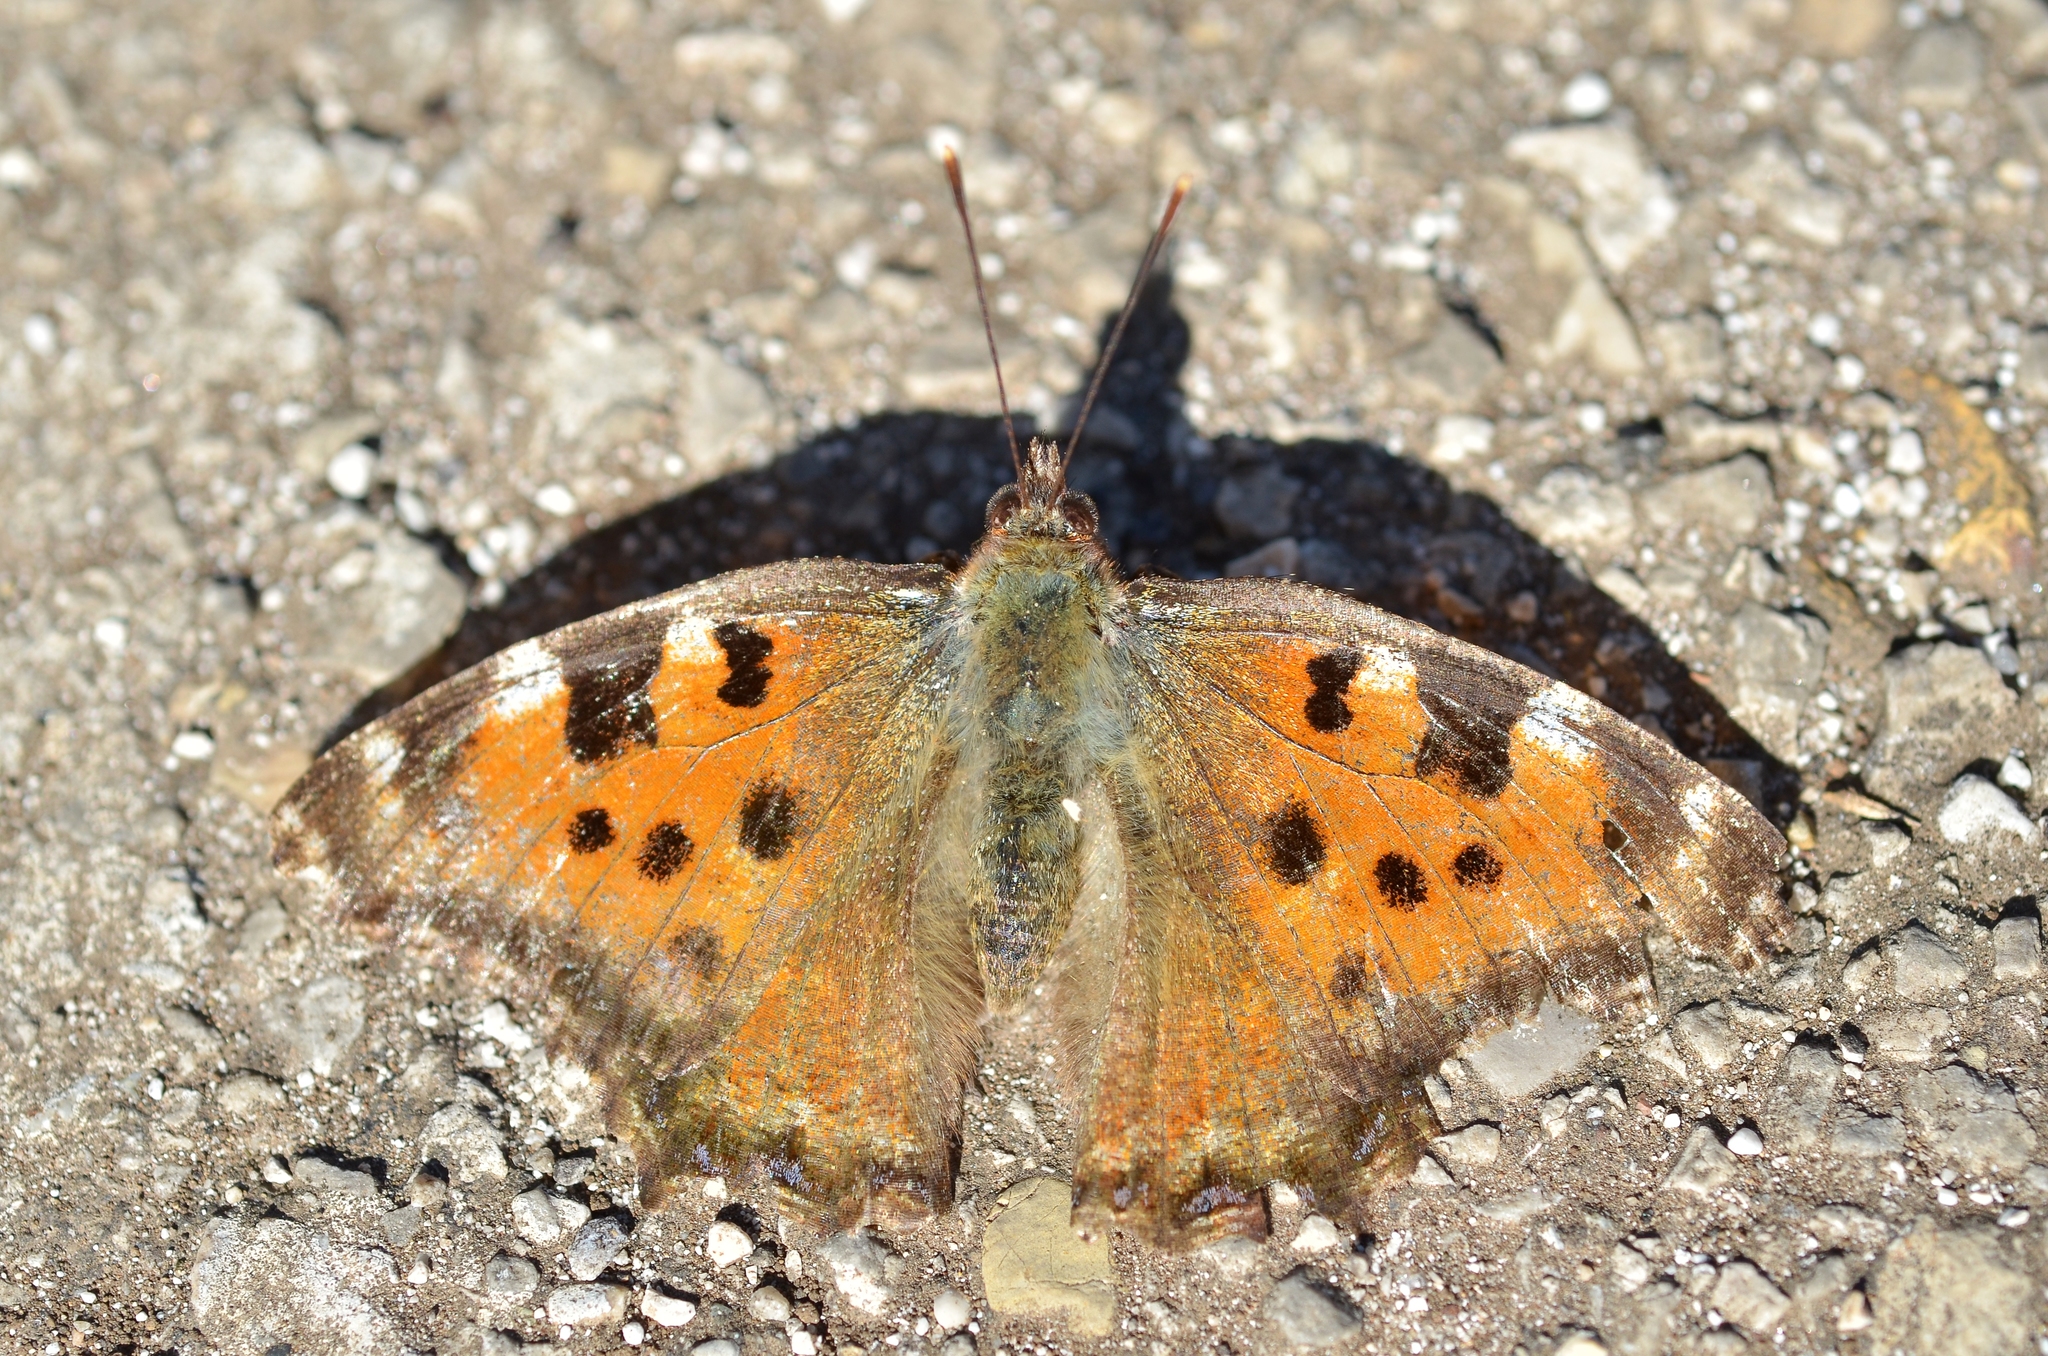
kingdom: Animalia
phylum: Arthropoda
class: Insecta
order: Lepidoptera
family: Nymphalidae
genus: Nymphalis
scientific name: Nymphalis polychloros
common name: Large tortoiseshell
